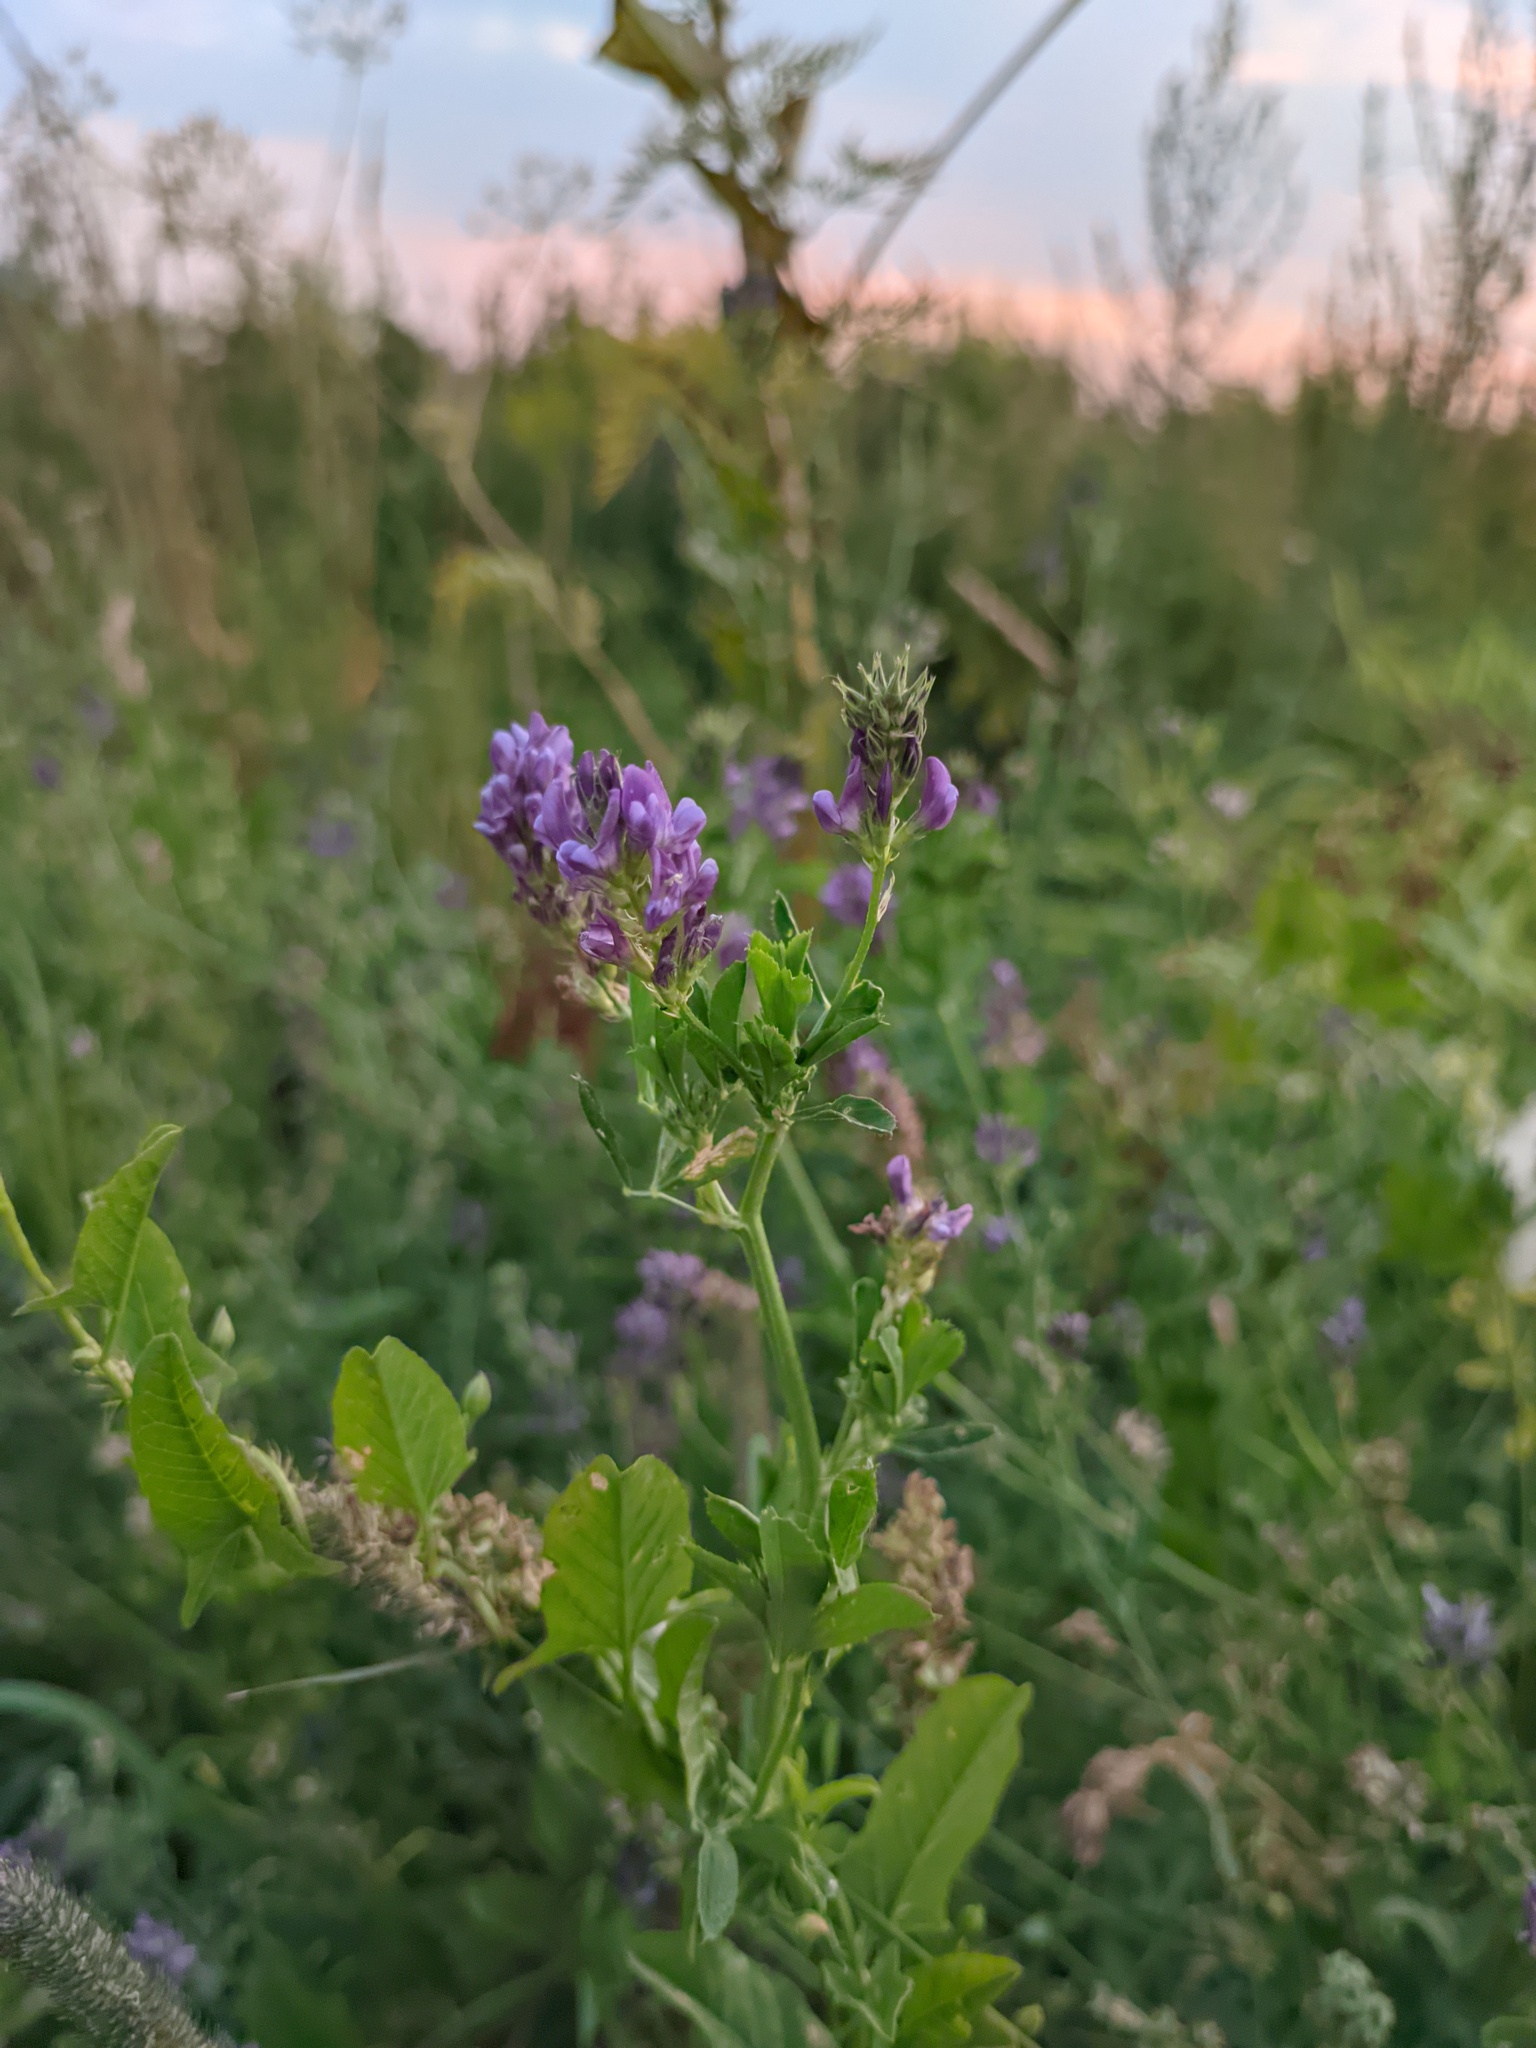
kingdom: Plantae
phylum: Tracheophyta
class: Magnoliopsida
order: Fabales
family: Fabaceae
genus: Medicago
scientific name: Medicago sativa
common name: Alfalfa
